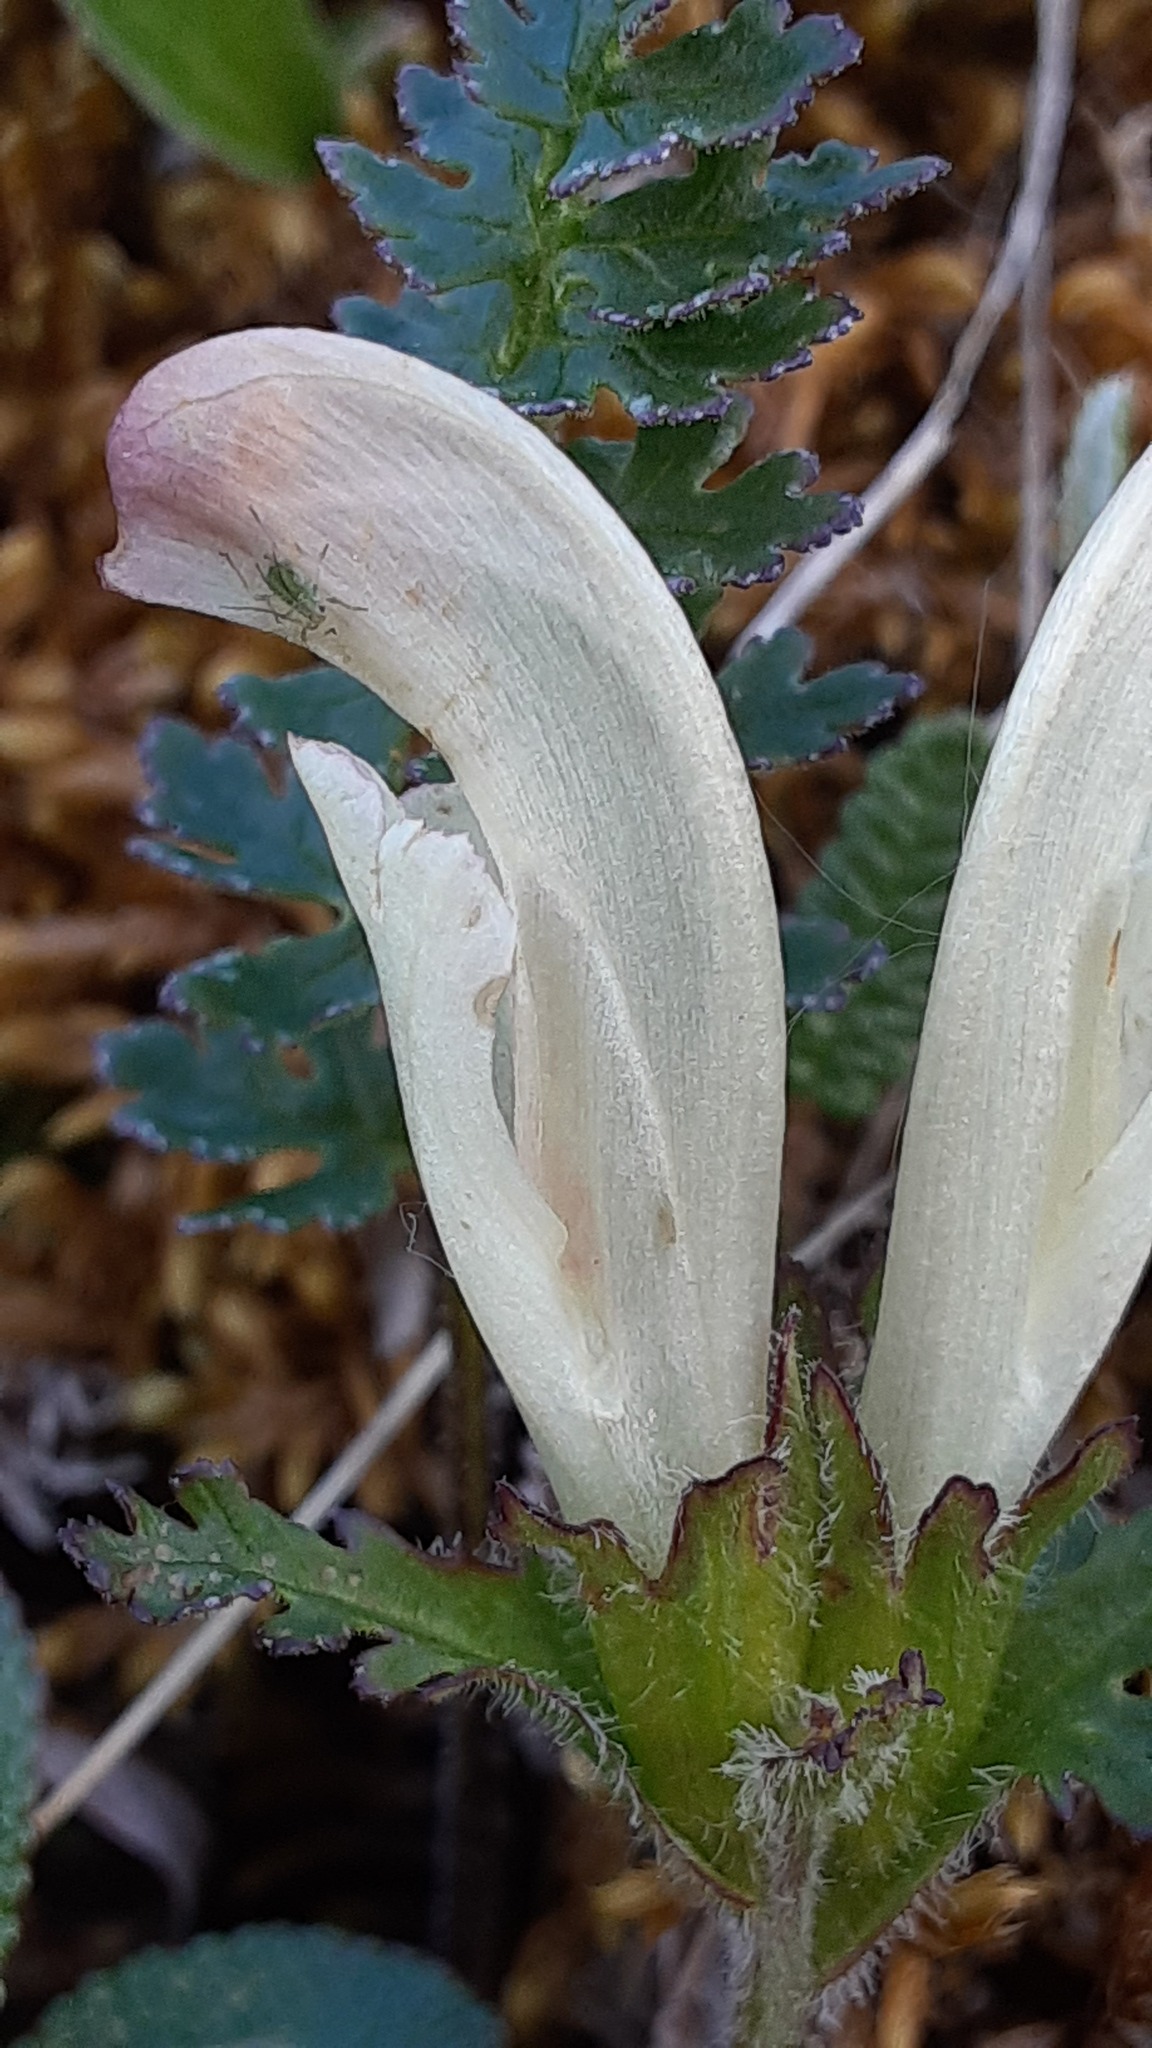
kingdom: Plantae
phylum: Tracheophyta
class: Magnoliopsida
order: Lamiales
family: Orobanchaceae
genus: Pedicularis
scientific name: Pedicularis capitata
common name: Capitate lousewort
